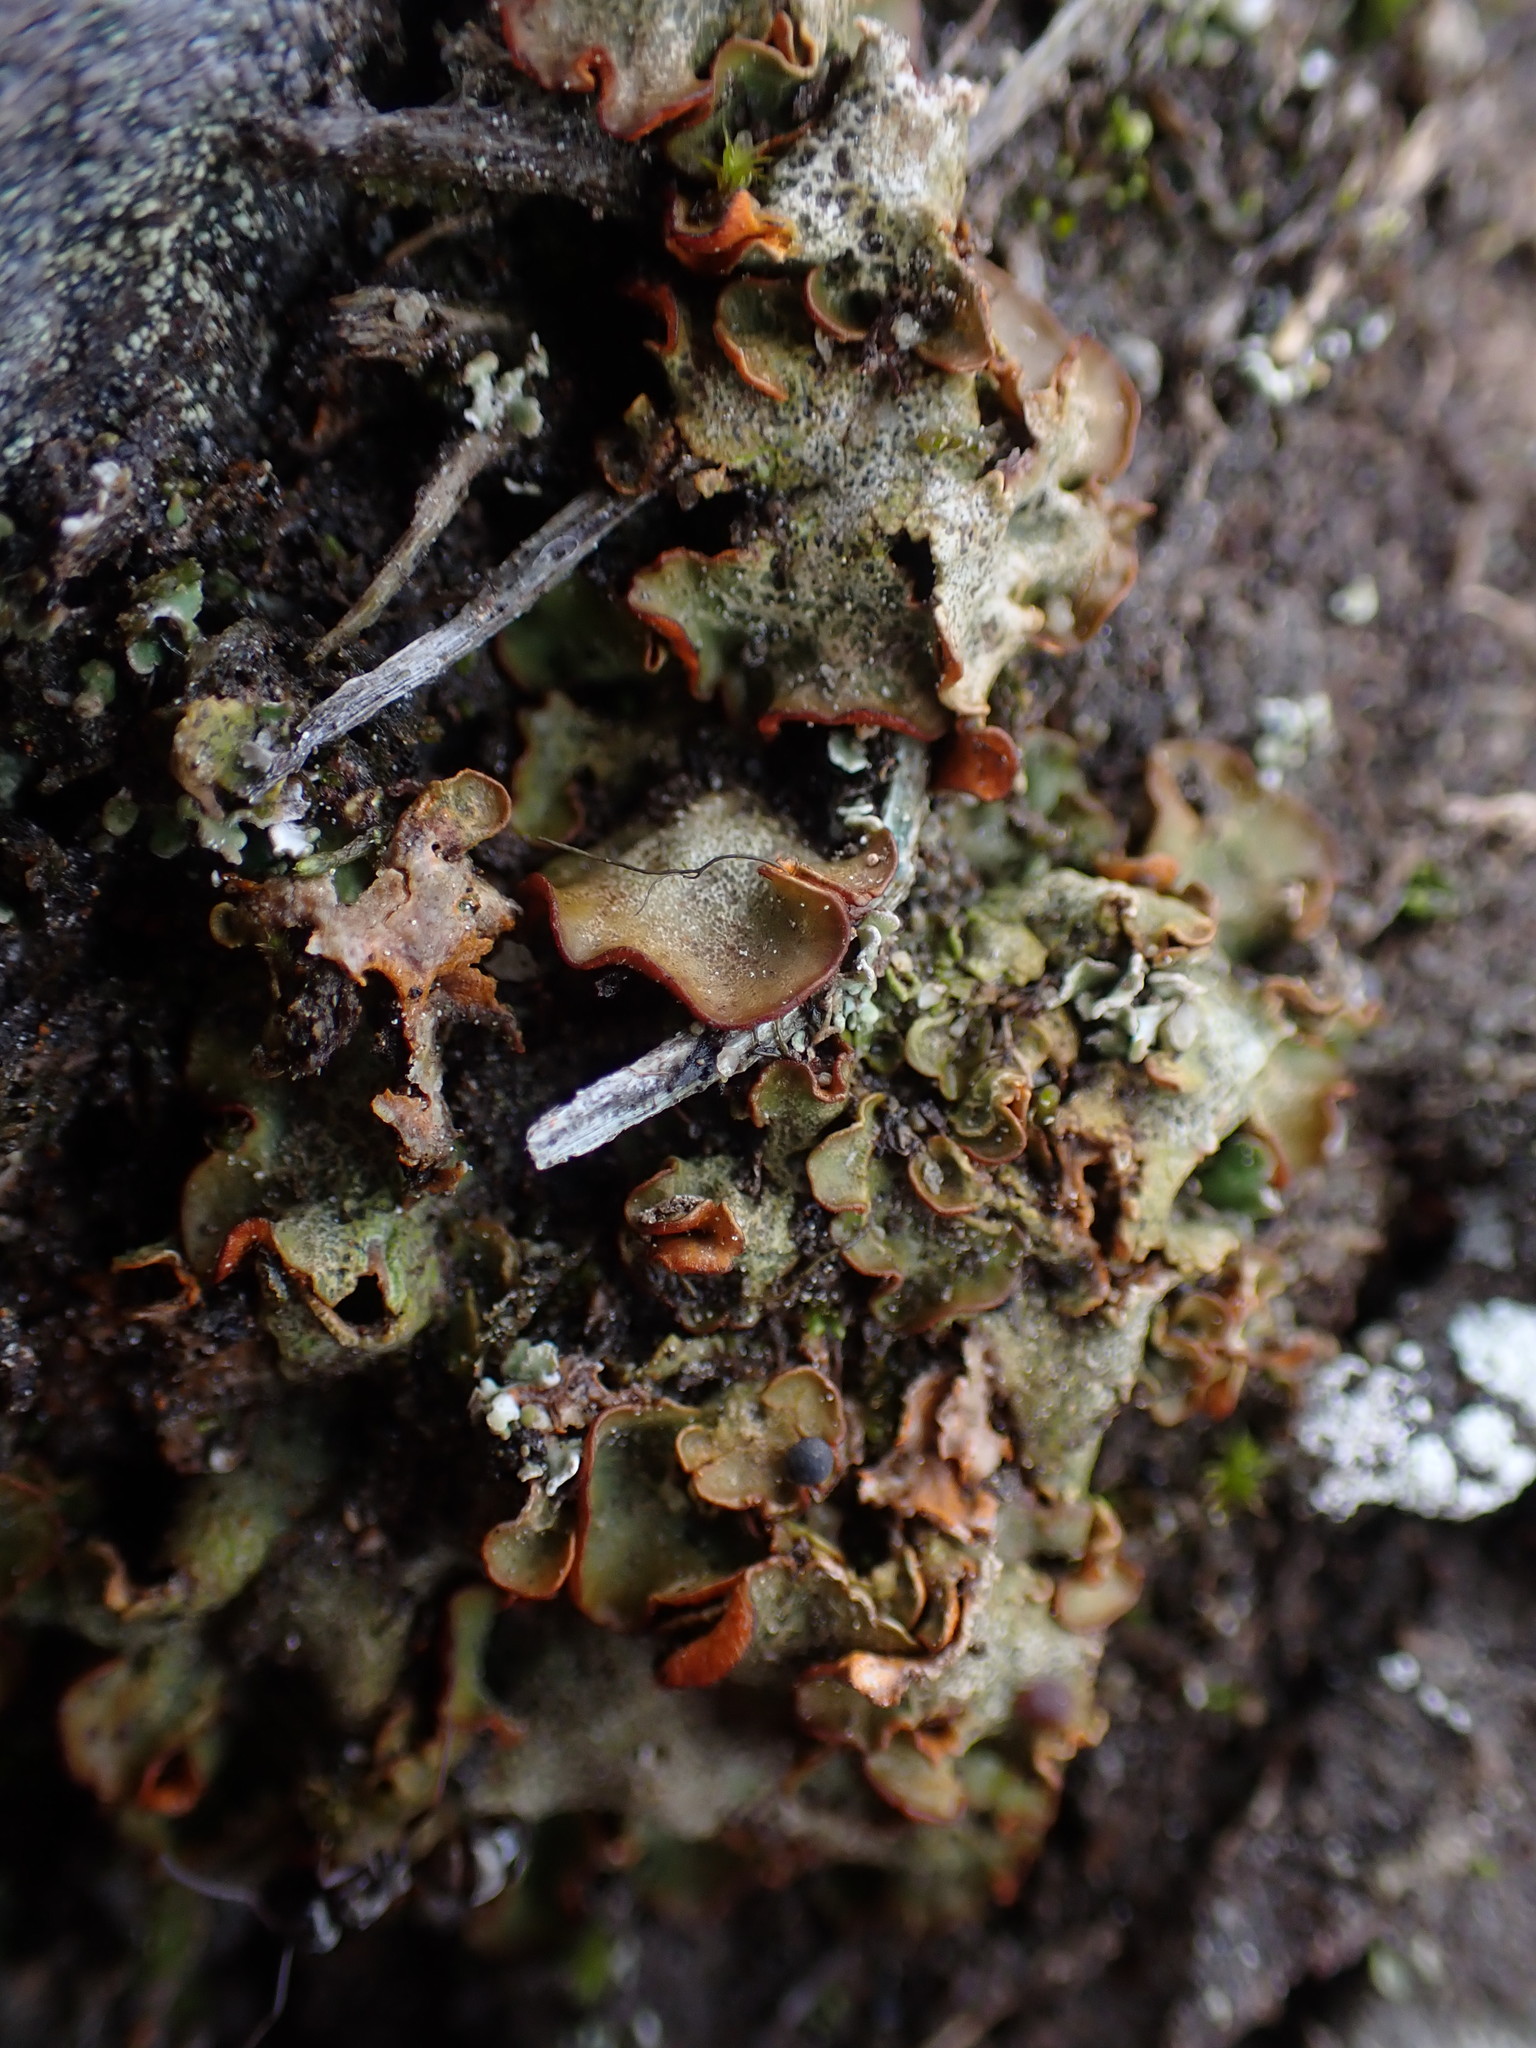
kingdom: Fungi
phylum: Ascomycota
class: Lecanoromycetes
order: Peltigerales
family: Peltigeraceae
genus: Solorina
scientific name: Solorina crocea
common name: Mountain saffron
